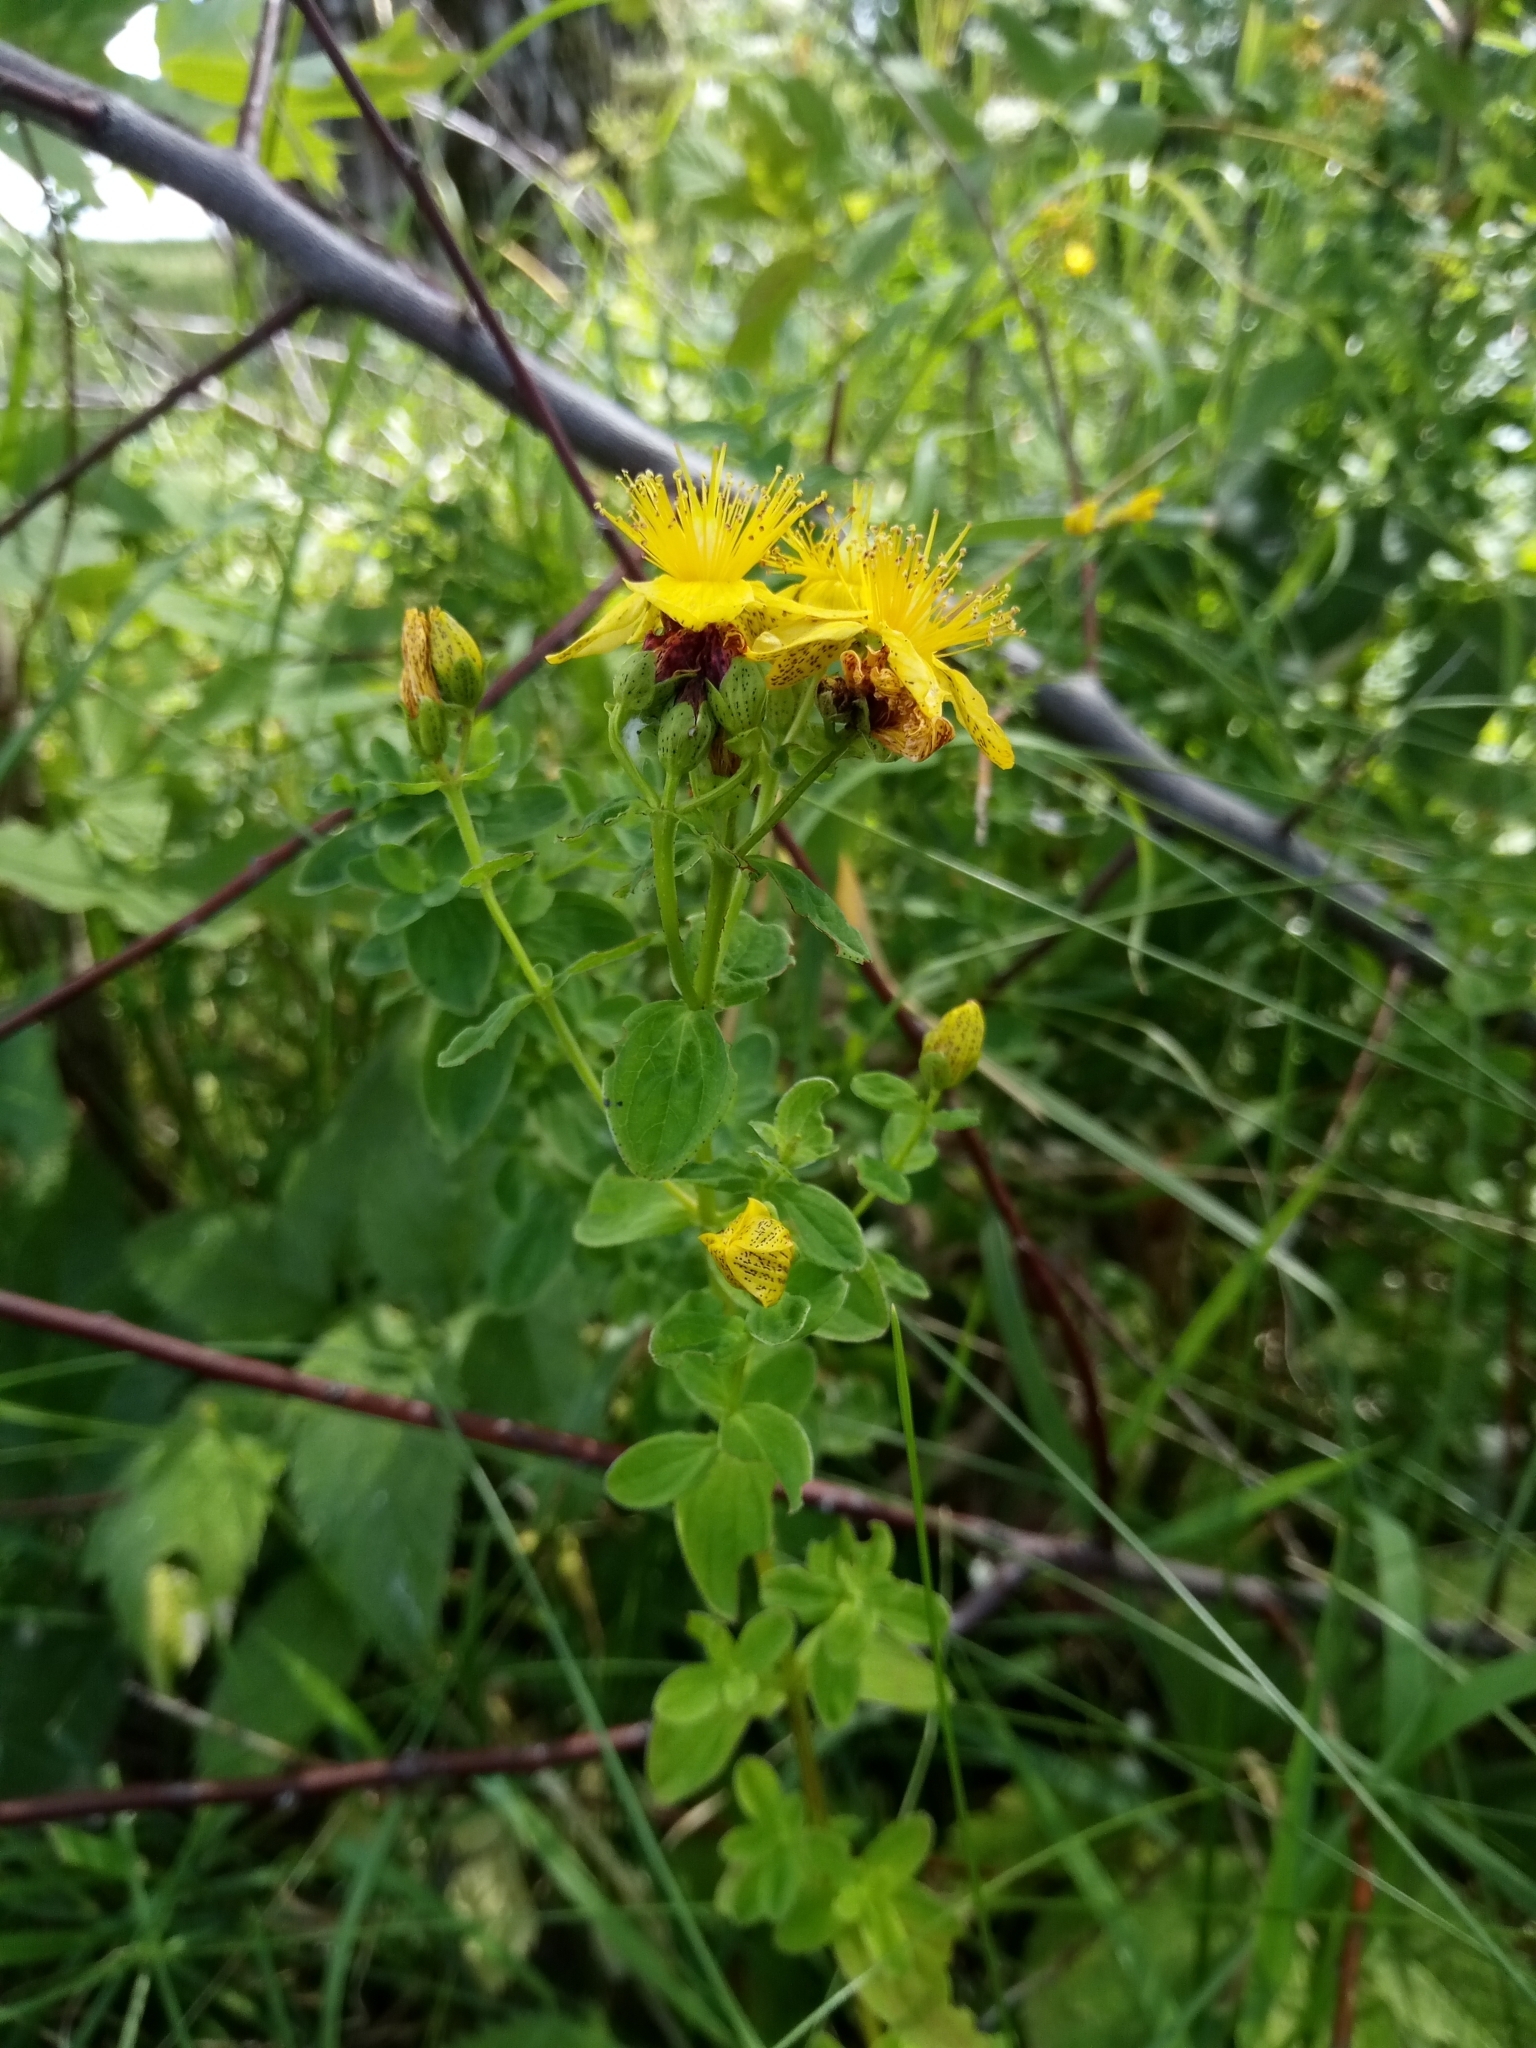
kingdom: Plantae
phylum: Tracheophyta
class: Magnoliopsida
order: Malpighiales
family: Hypericaceae
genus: Hypericum
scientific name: Hypericum maculatum
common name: Imperforate st. john's-wort
